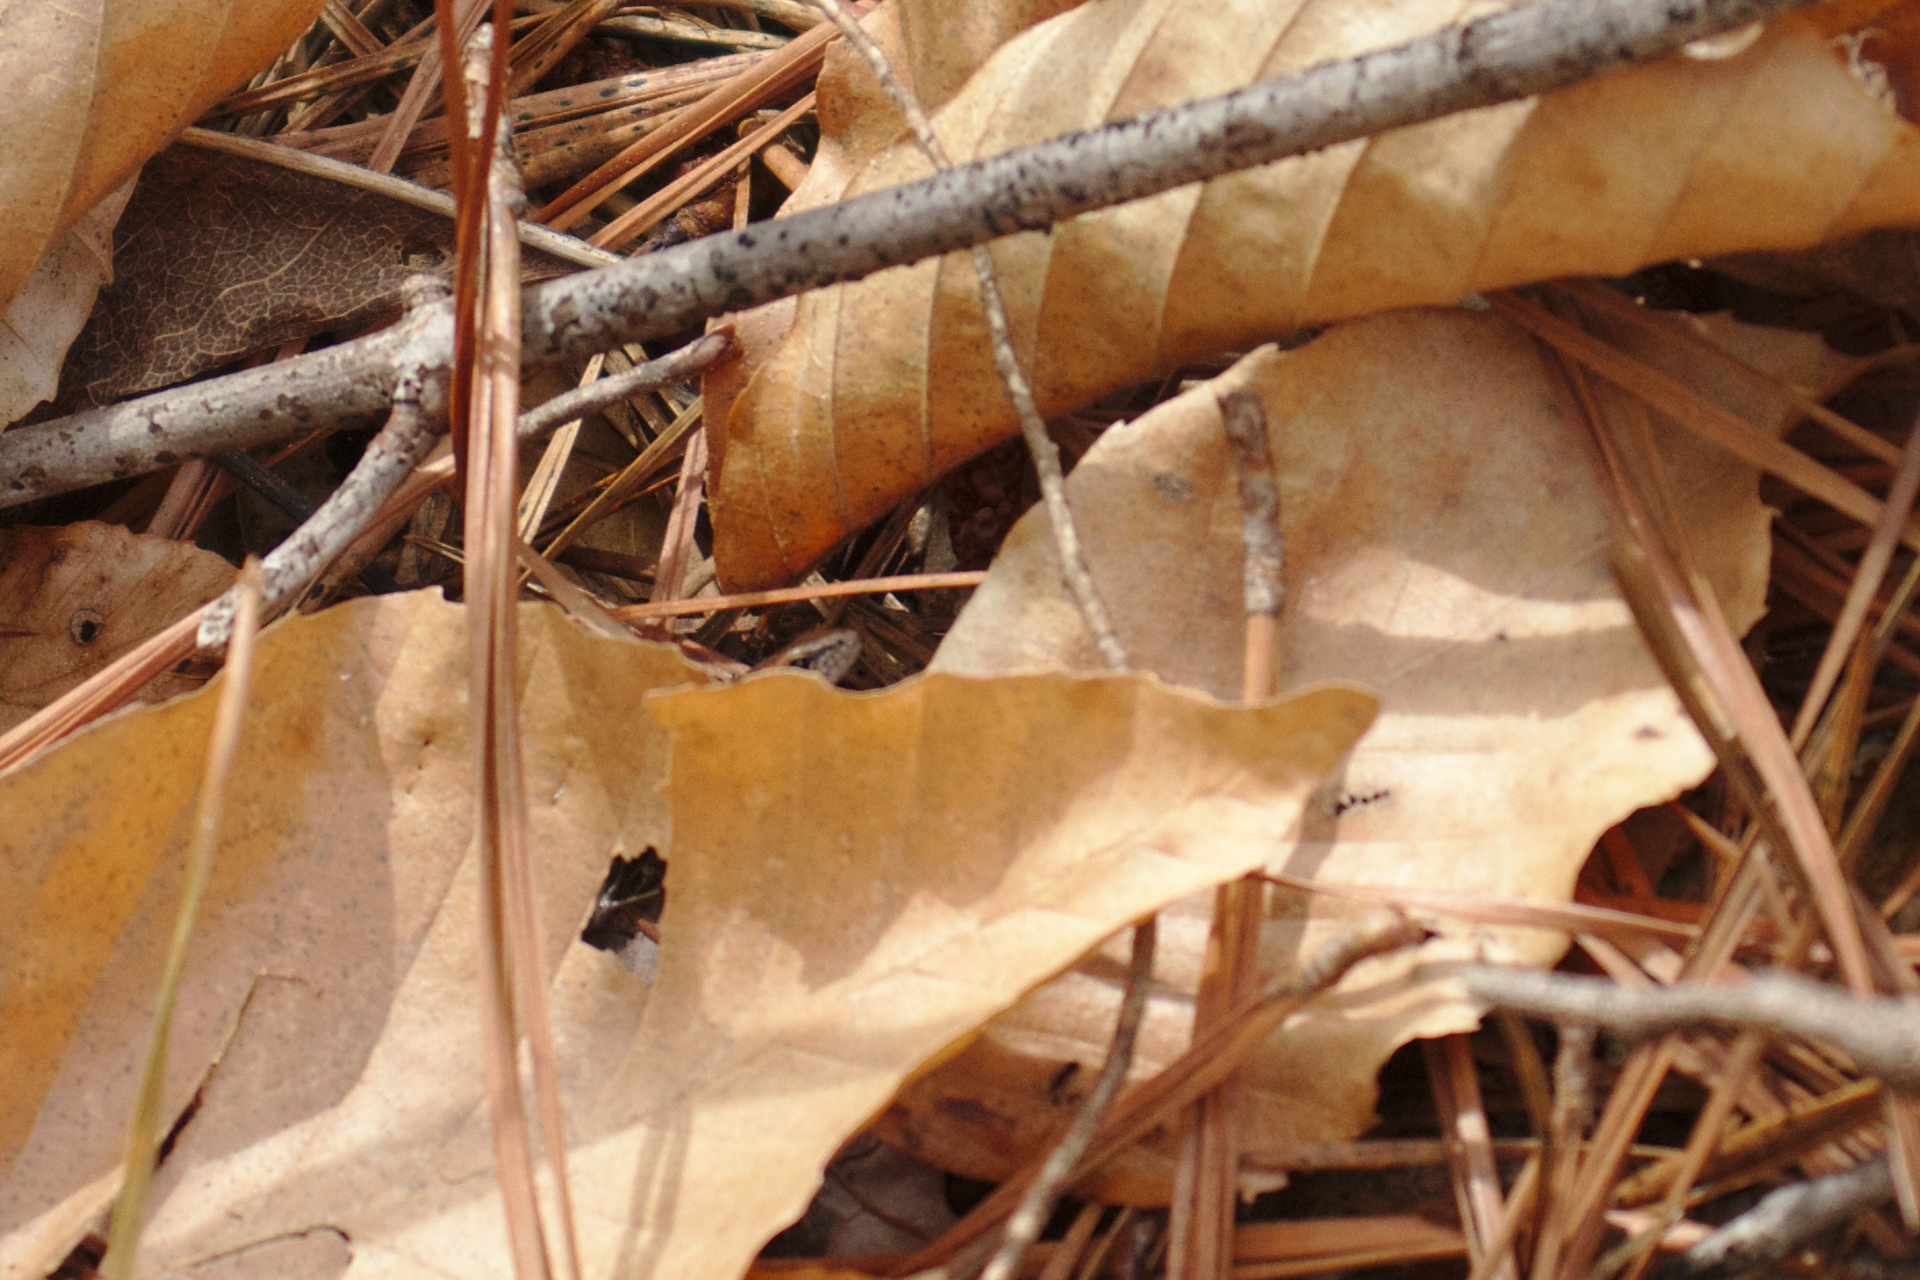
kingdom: Animalia
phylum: Chordata
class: Squamata
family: Scincidae
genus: Scincella
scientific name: Scincella lateralis
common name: Ground skink
